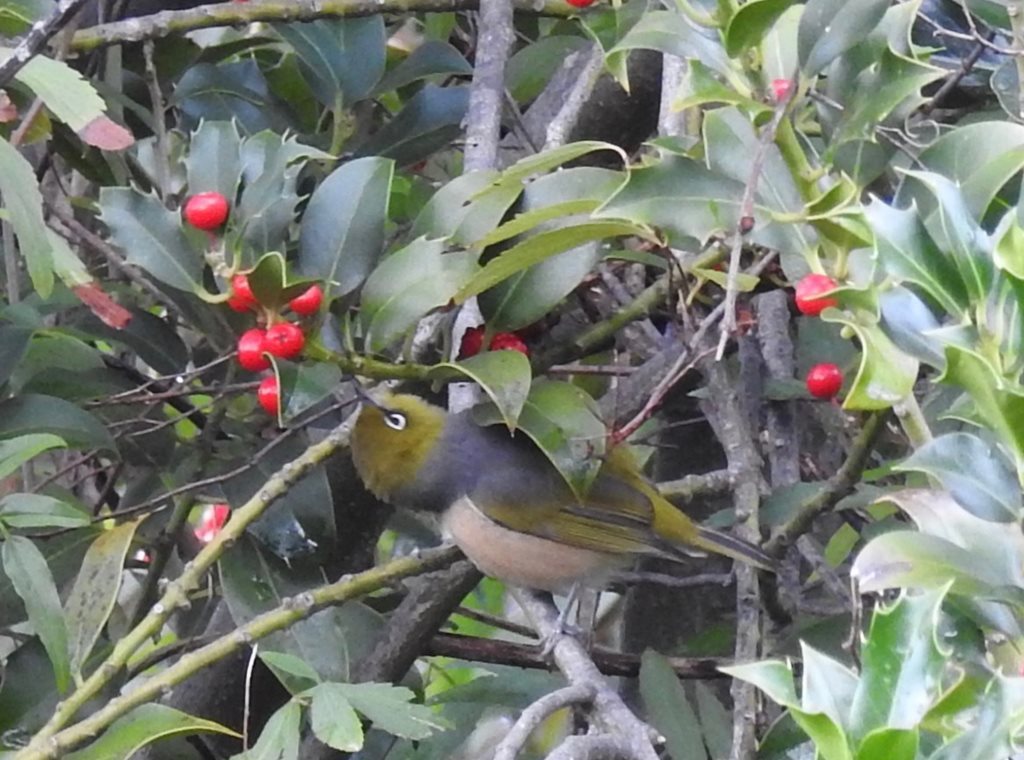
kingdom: Animalia
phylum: Chordata
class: Aves
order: Passeriformes
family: Zosteropidae
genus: Zosterops
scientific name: Zosterops lateralis
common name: Silvereye
